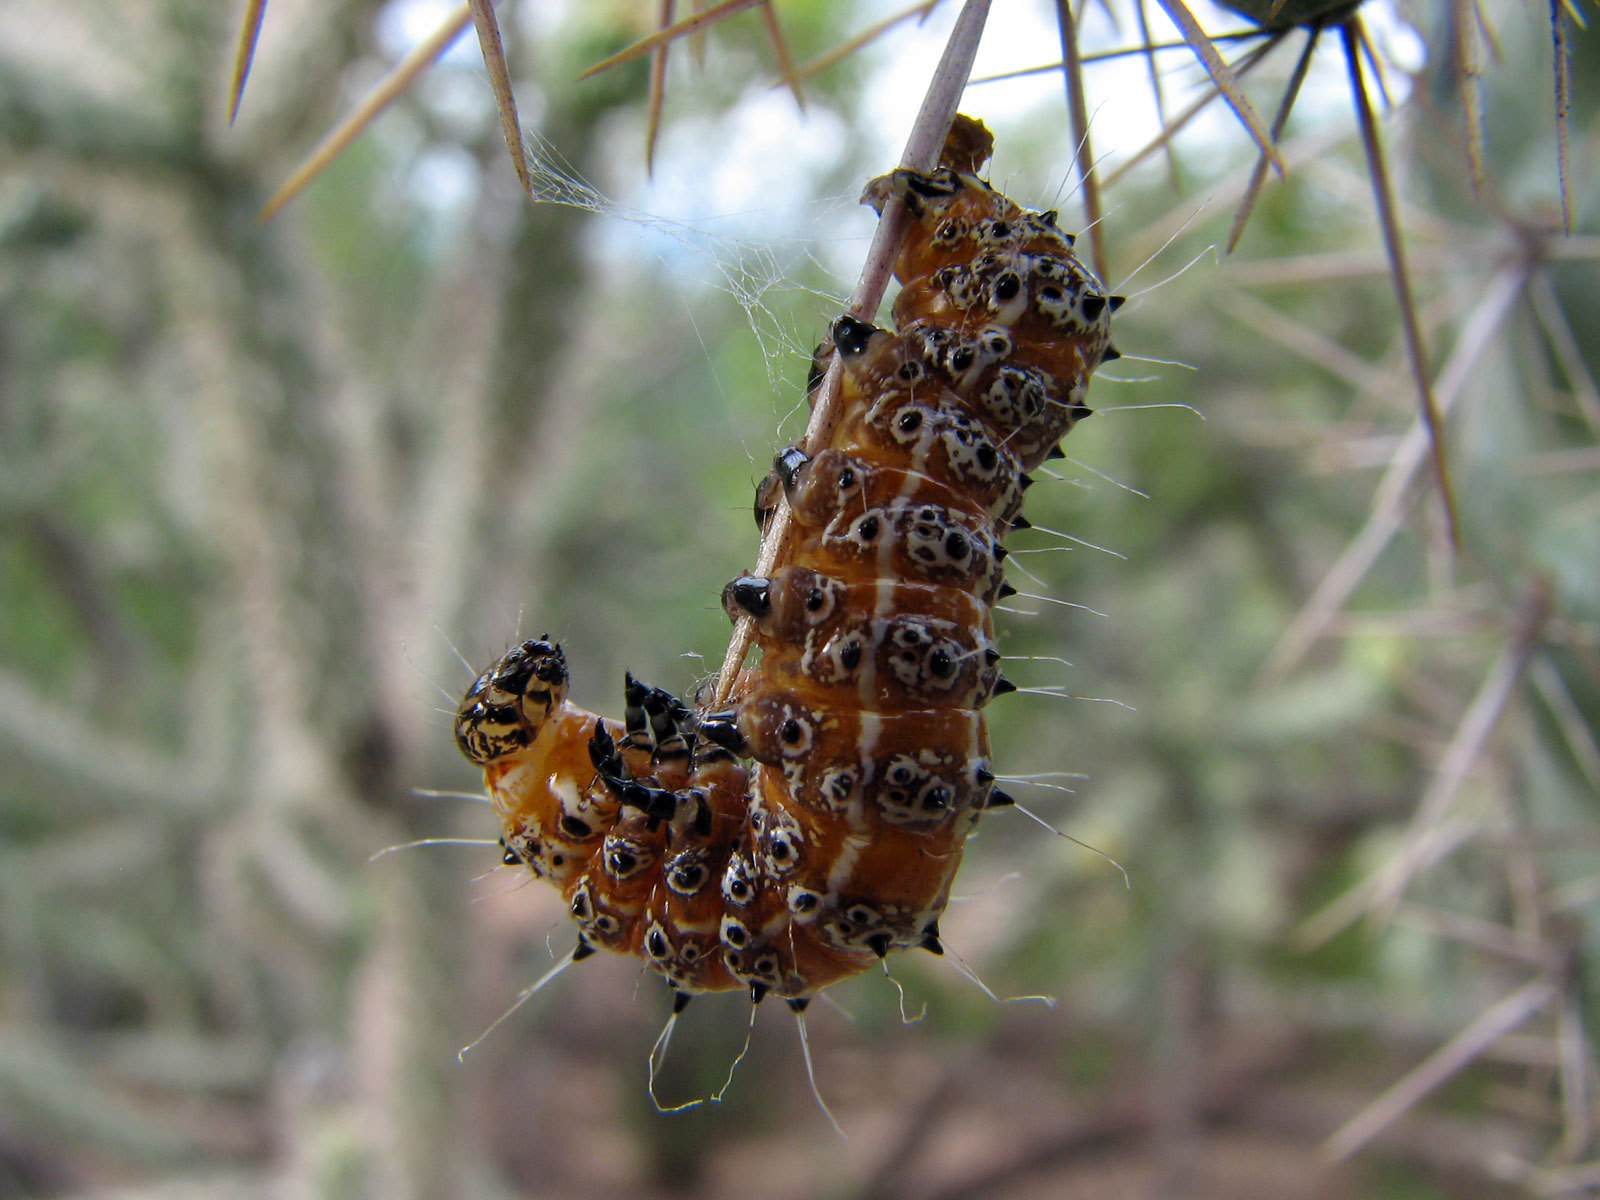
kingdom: Animalia
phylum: Arthropoda
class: Insecta
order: Lepidoptera
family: Noctuidae
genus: Euscirrhopterus
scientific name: Euscirrhopterus cosyra
